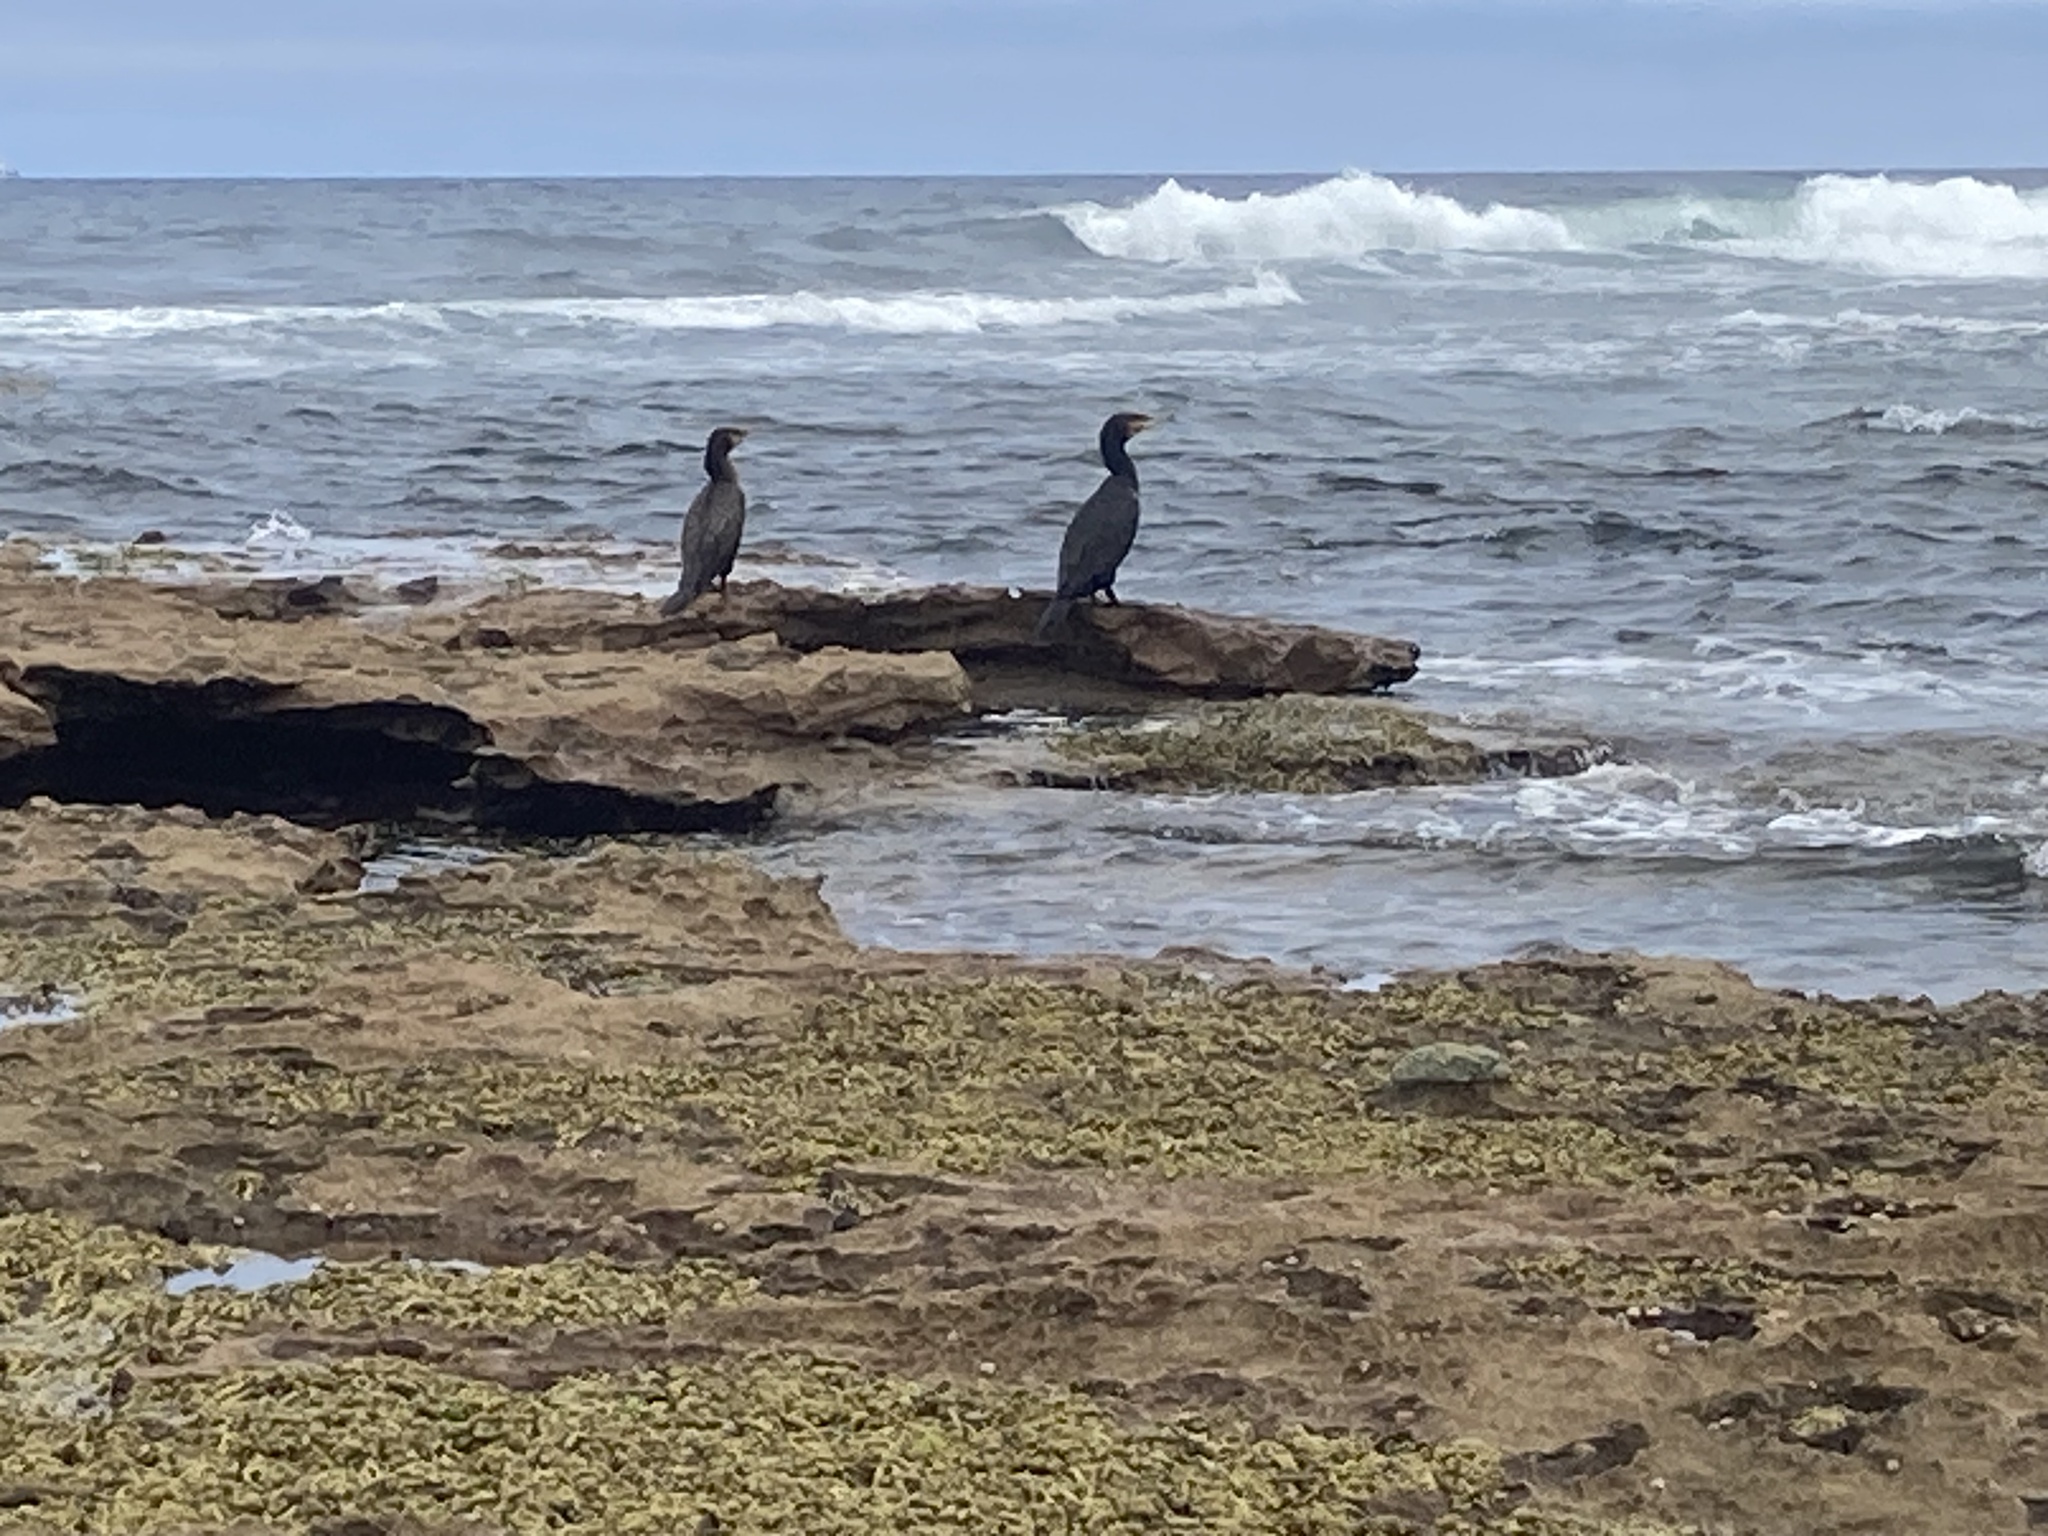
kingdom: Animalia
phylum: Chordata
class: Aves
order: Suliformes
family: Phalacrocoracidae
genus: Phalacrocorax
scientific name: Phalacrocorax carbo
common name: Great cormorant
